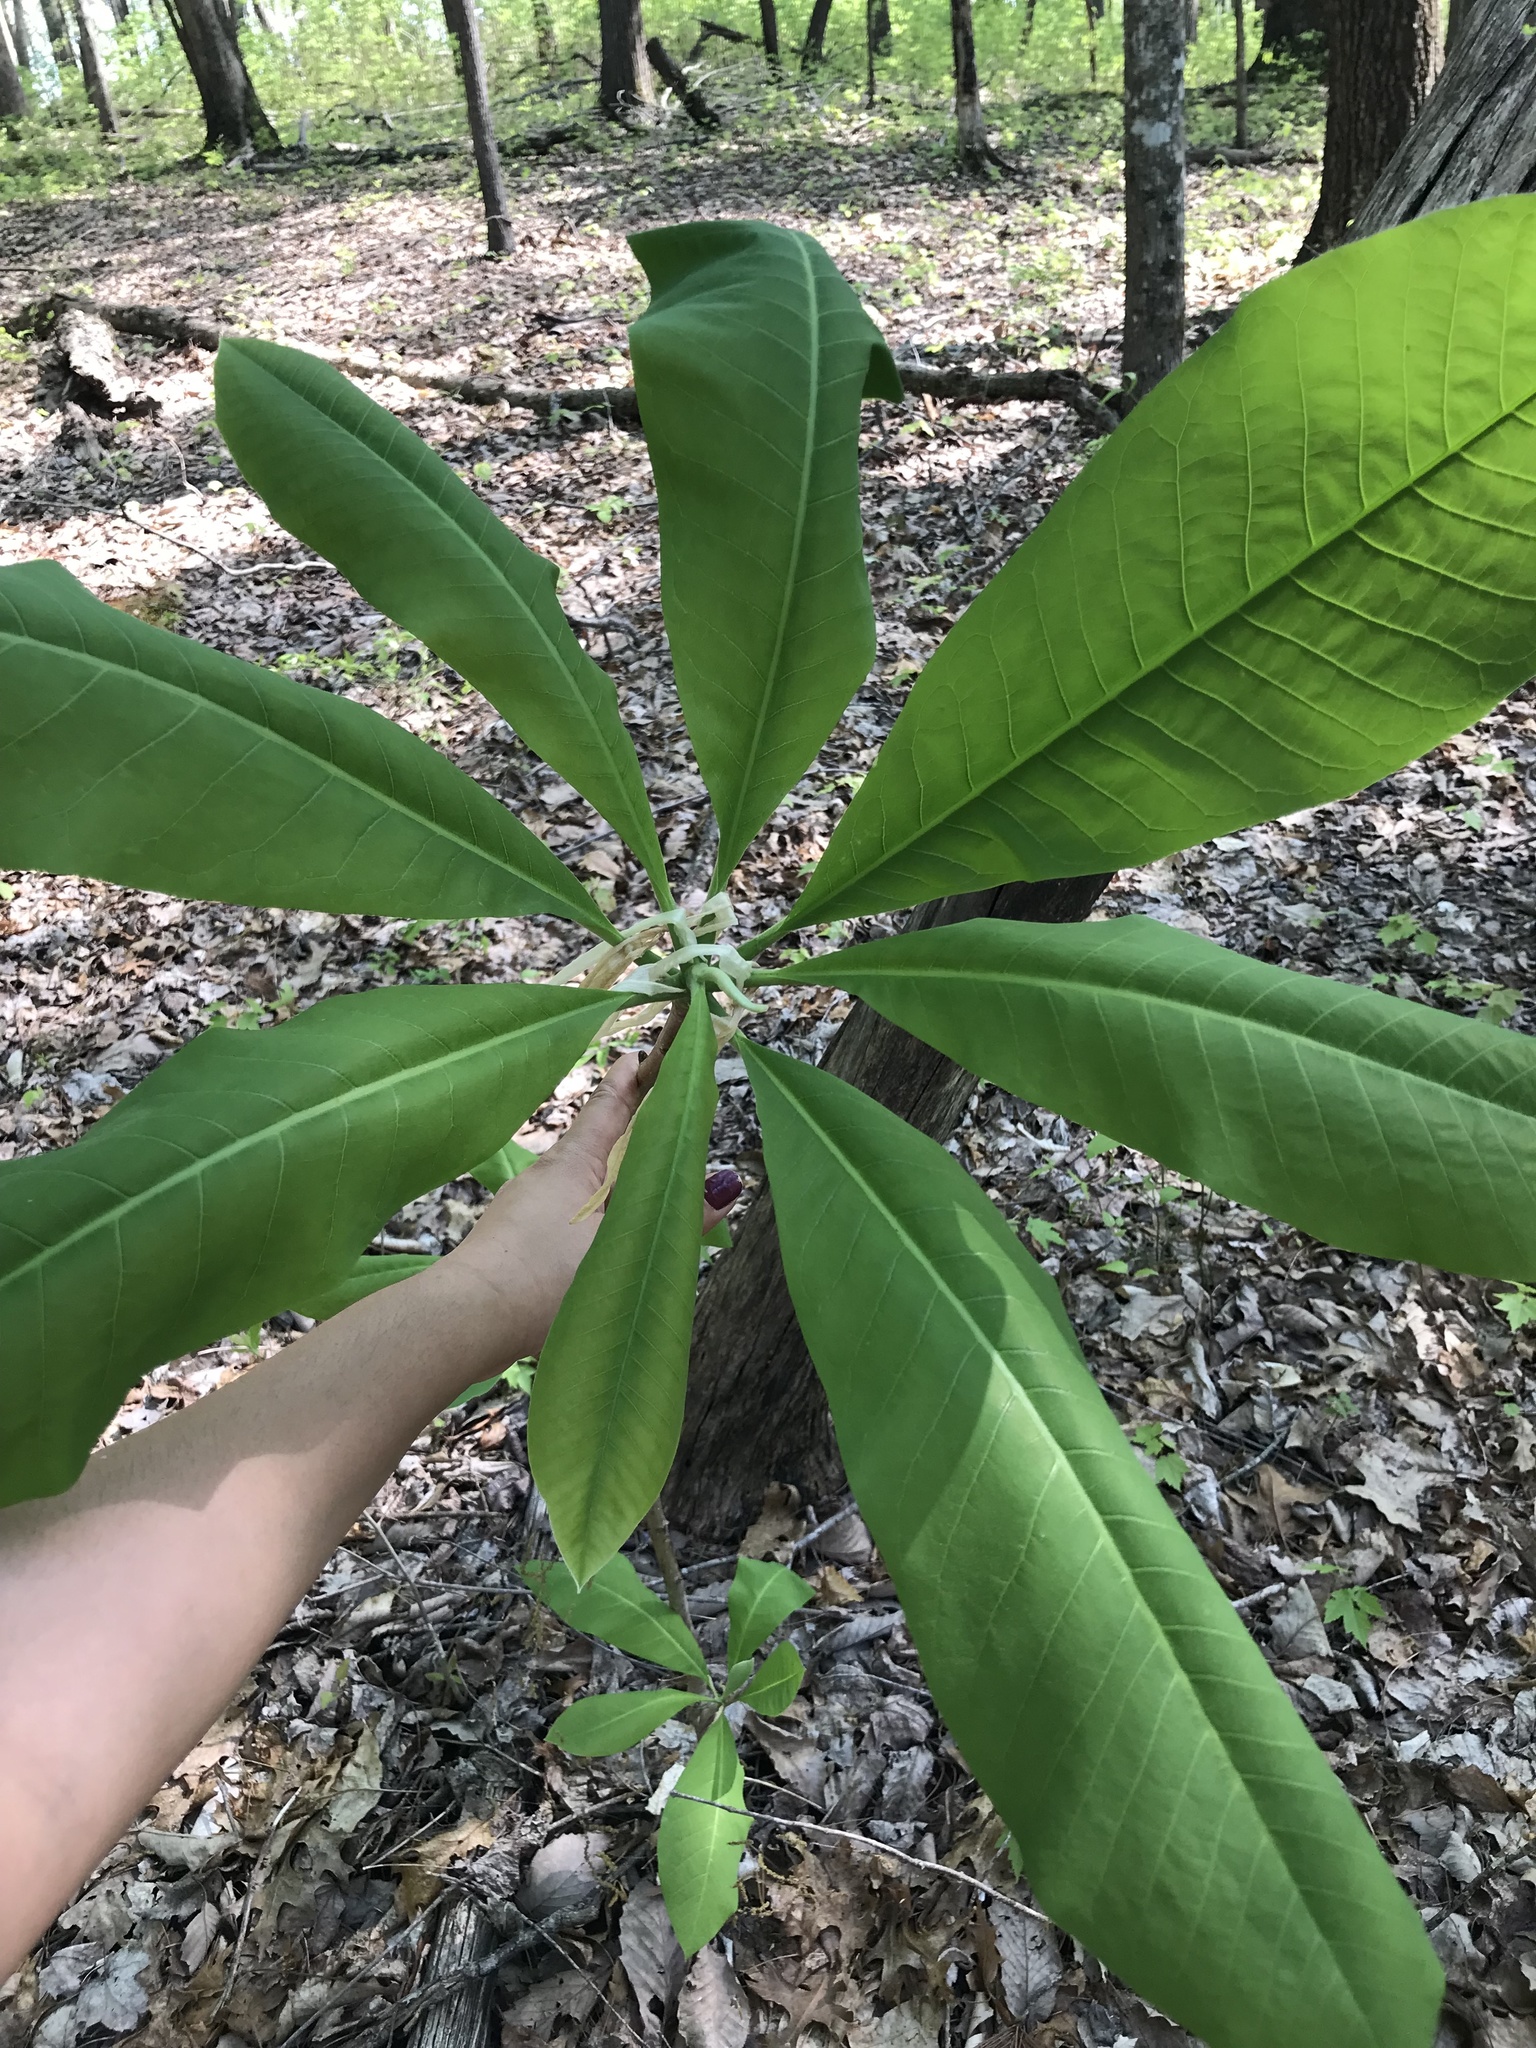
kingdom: Plantae
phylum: Tracheophyta
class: Magnoliopsida
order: Magnoliales
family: Magnoliaceae
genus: Magnolia
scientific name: Magnolia tripetala
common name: Umbrella magnolia
